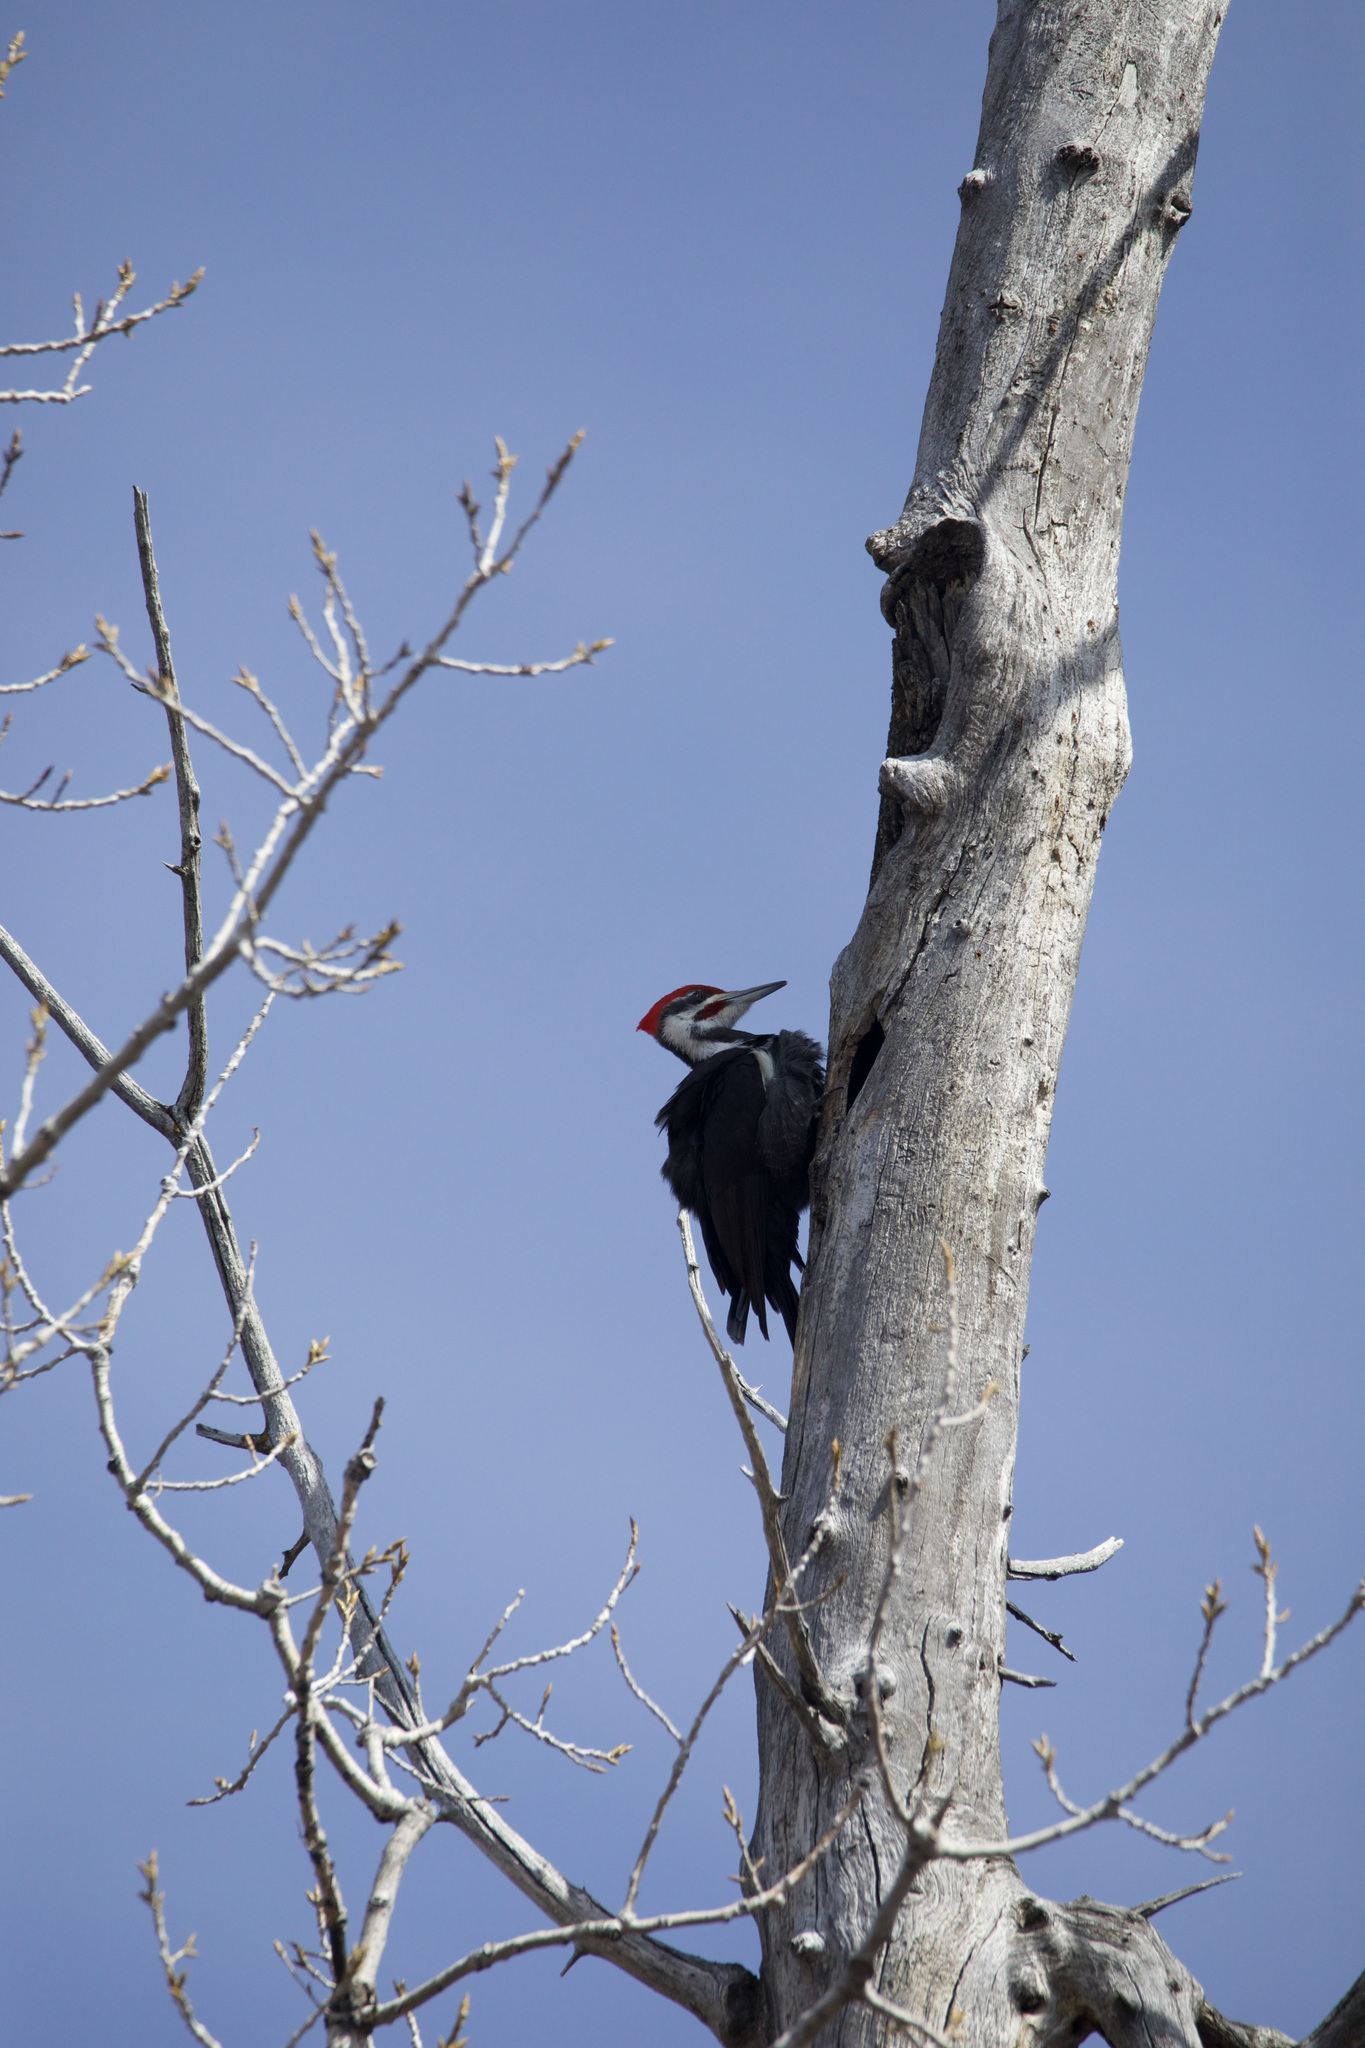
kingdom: Animalia
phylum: Chordata
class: Aves
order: Piciformes
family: Picidae
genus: Dryocopus
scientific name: Dryocopus pileatus
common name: Pileated woodpecker
